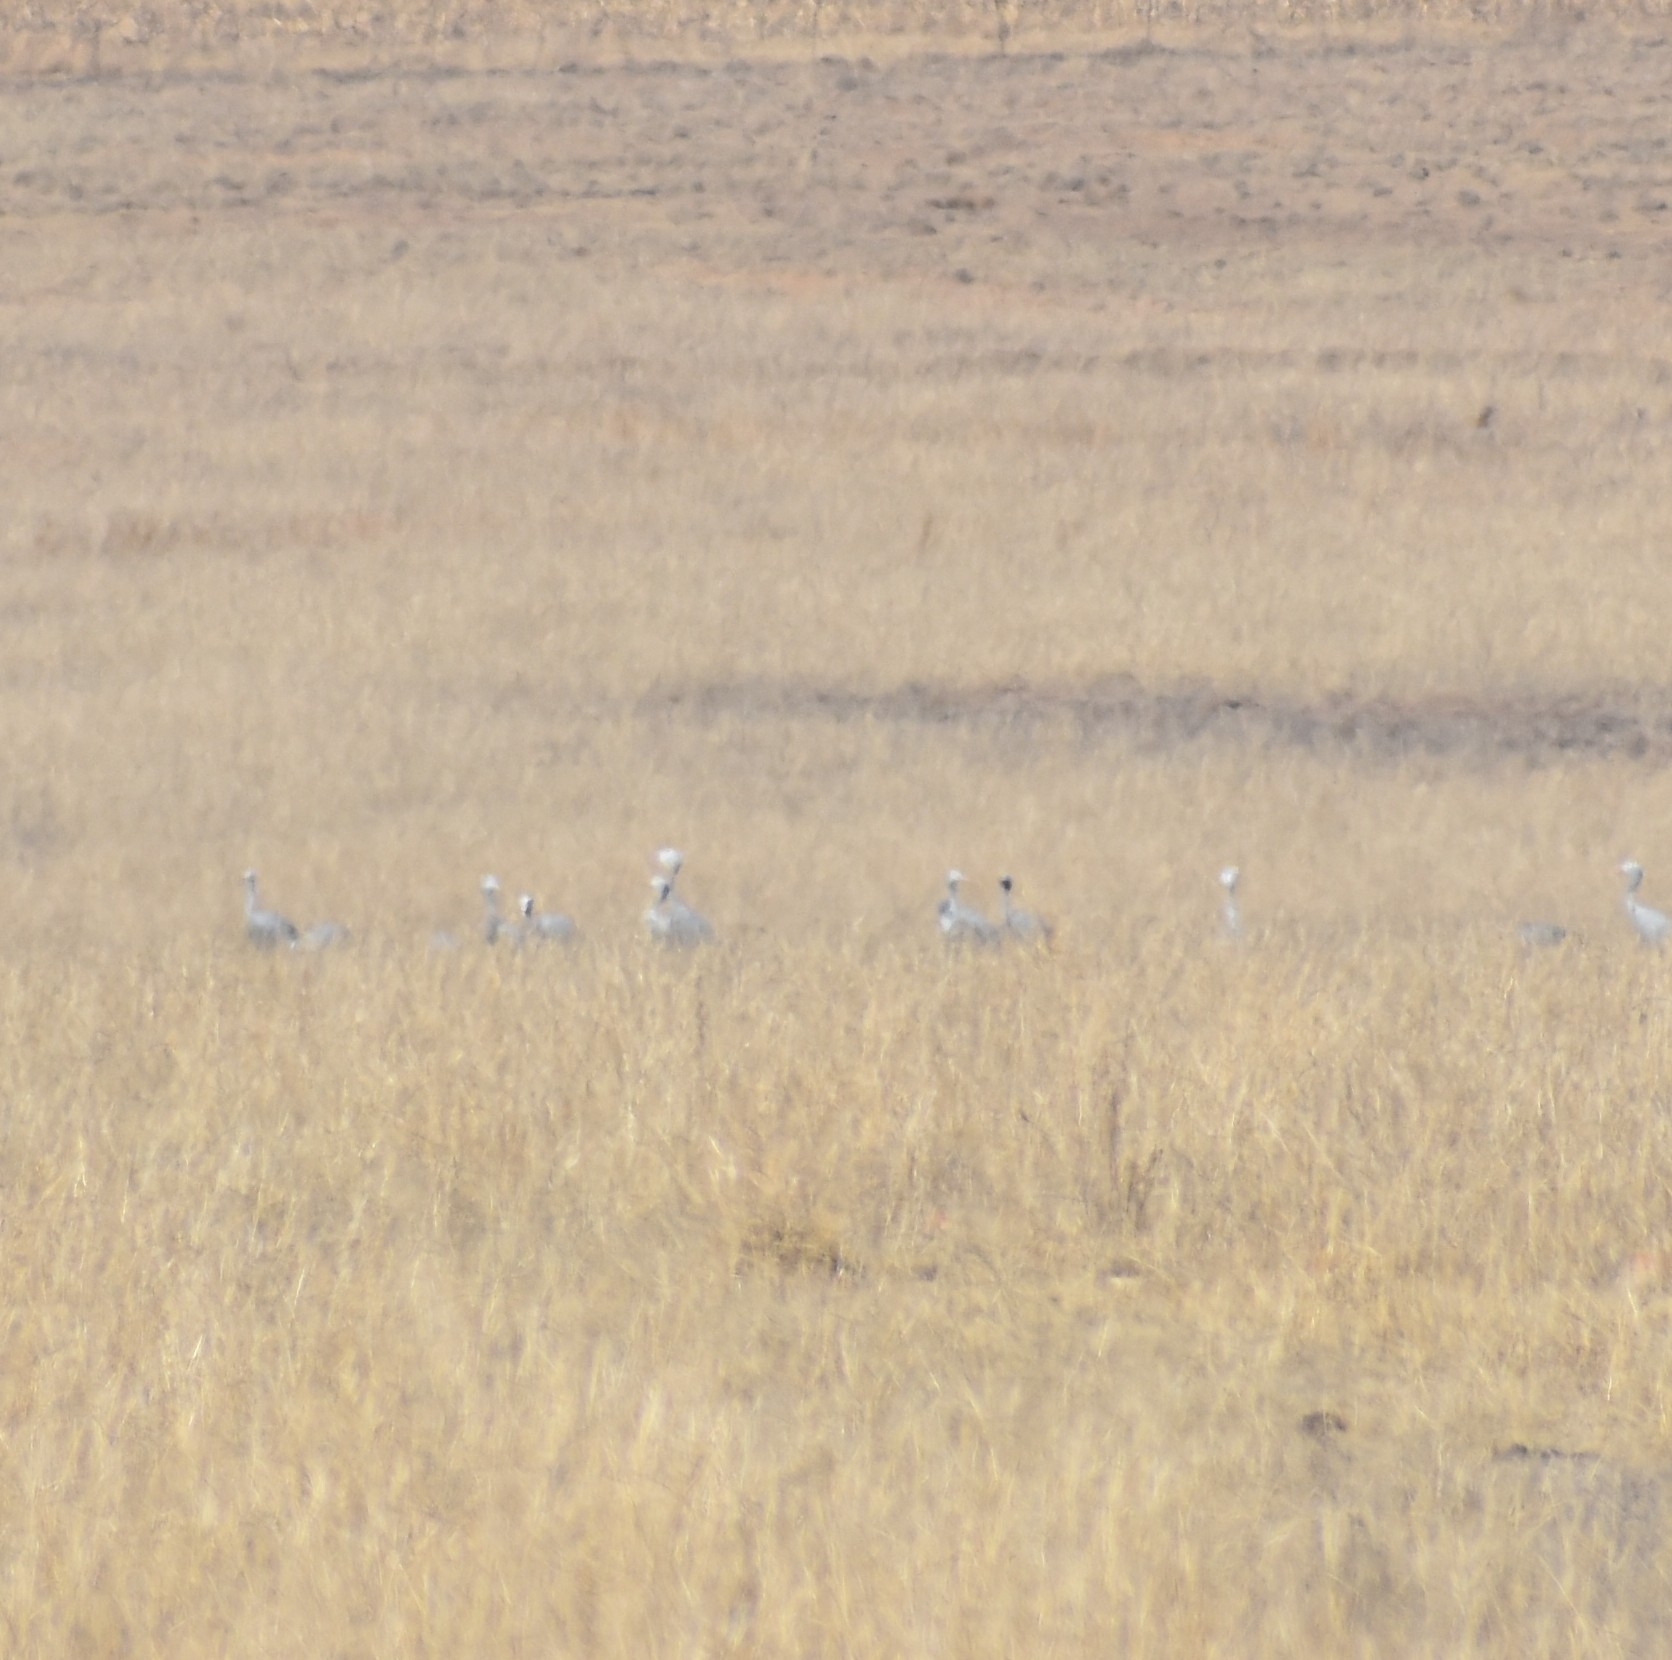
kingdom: Animalia
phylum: Chordata
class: Aves
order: Gruiformes
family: Gruidae
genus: Anthropoides
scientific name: Anthropoides paradiseus
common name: Blue crane
